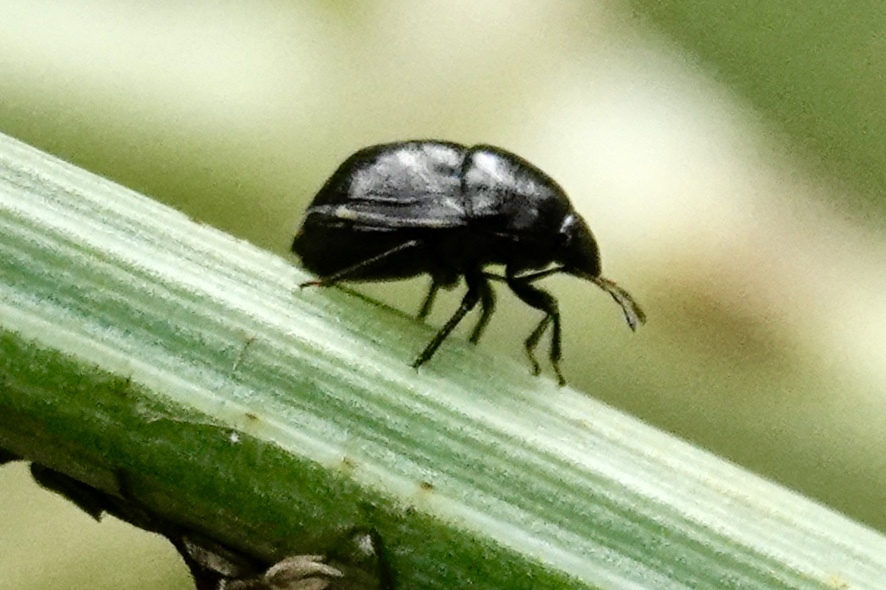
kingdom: Animalia
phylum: Arthropoda
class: Insecta
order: Hemiptera
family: Thyreocoridae
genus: Corimelaena
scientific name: Corimelaena lateralis
